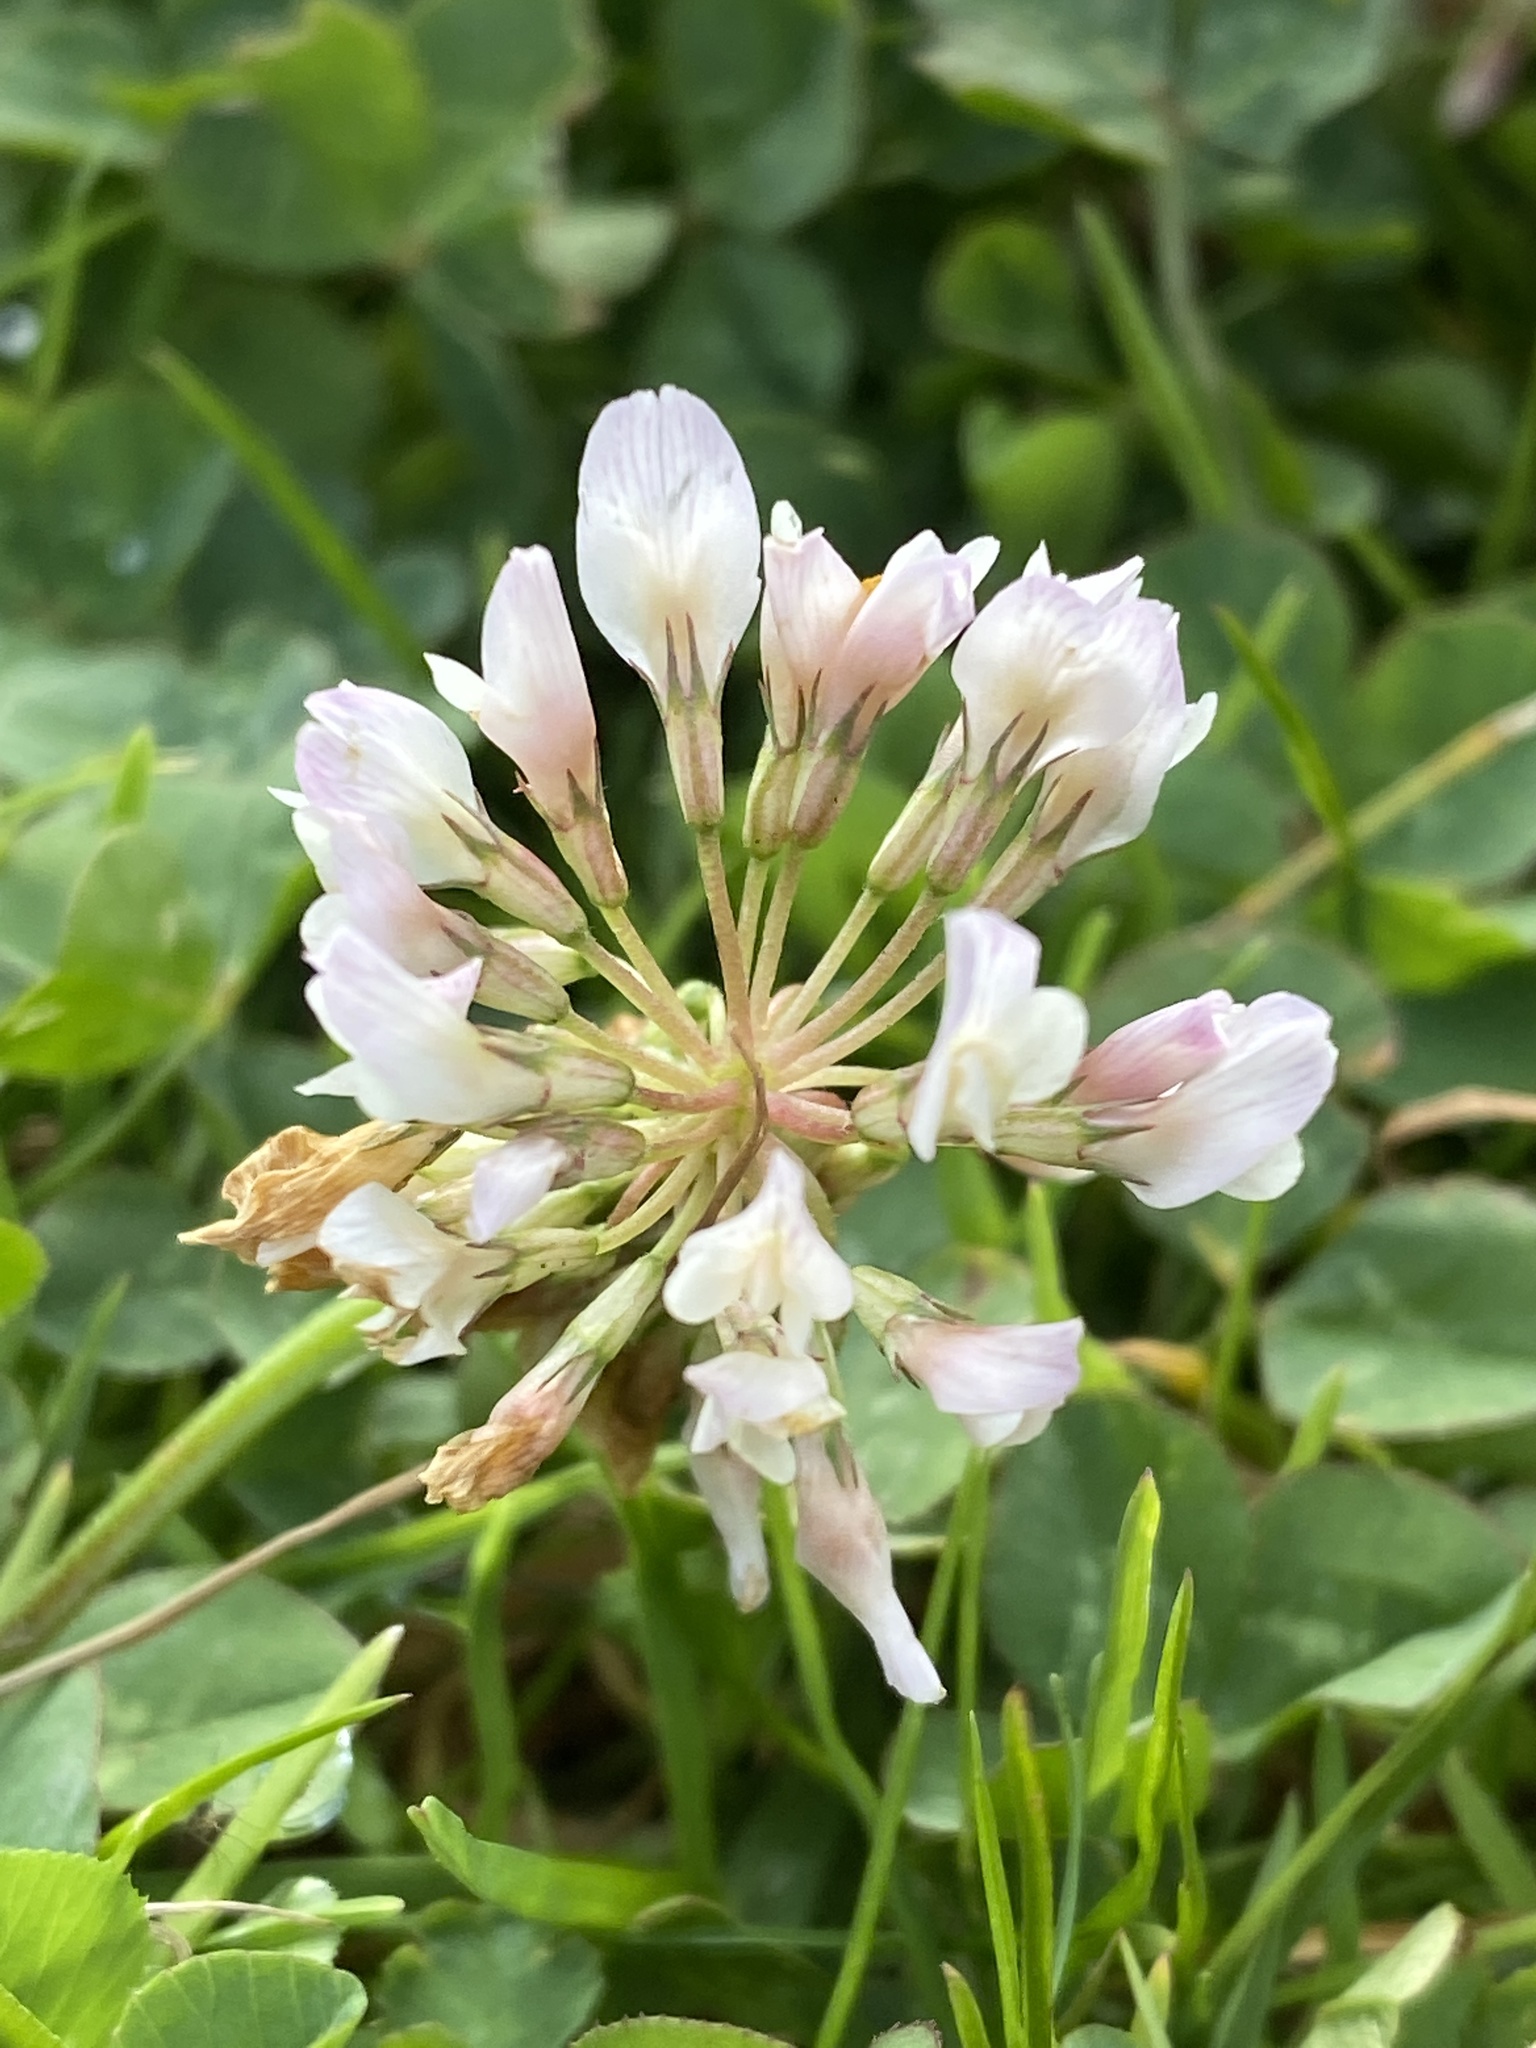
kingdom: Plantae
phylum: Tracheophyta
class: Magnoliopsida
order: Fabales
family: Fabaceae
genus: Trifolium
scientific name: Trifolium repens
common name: White clover
